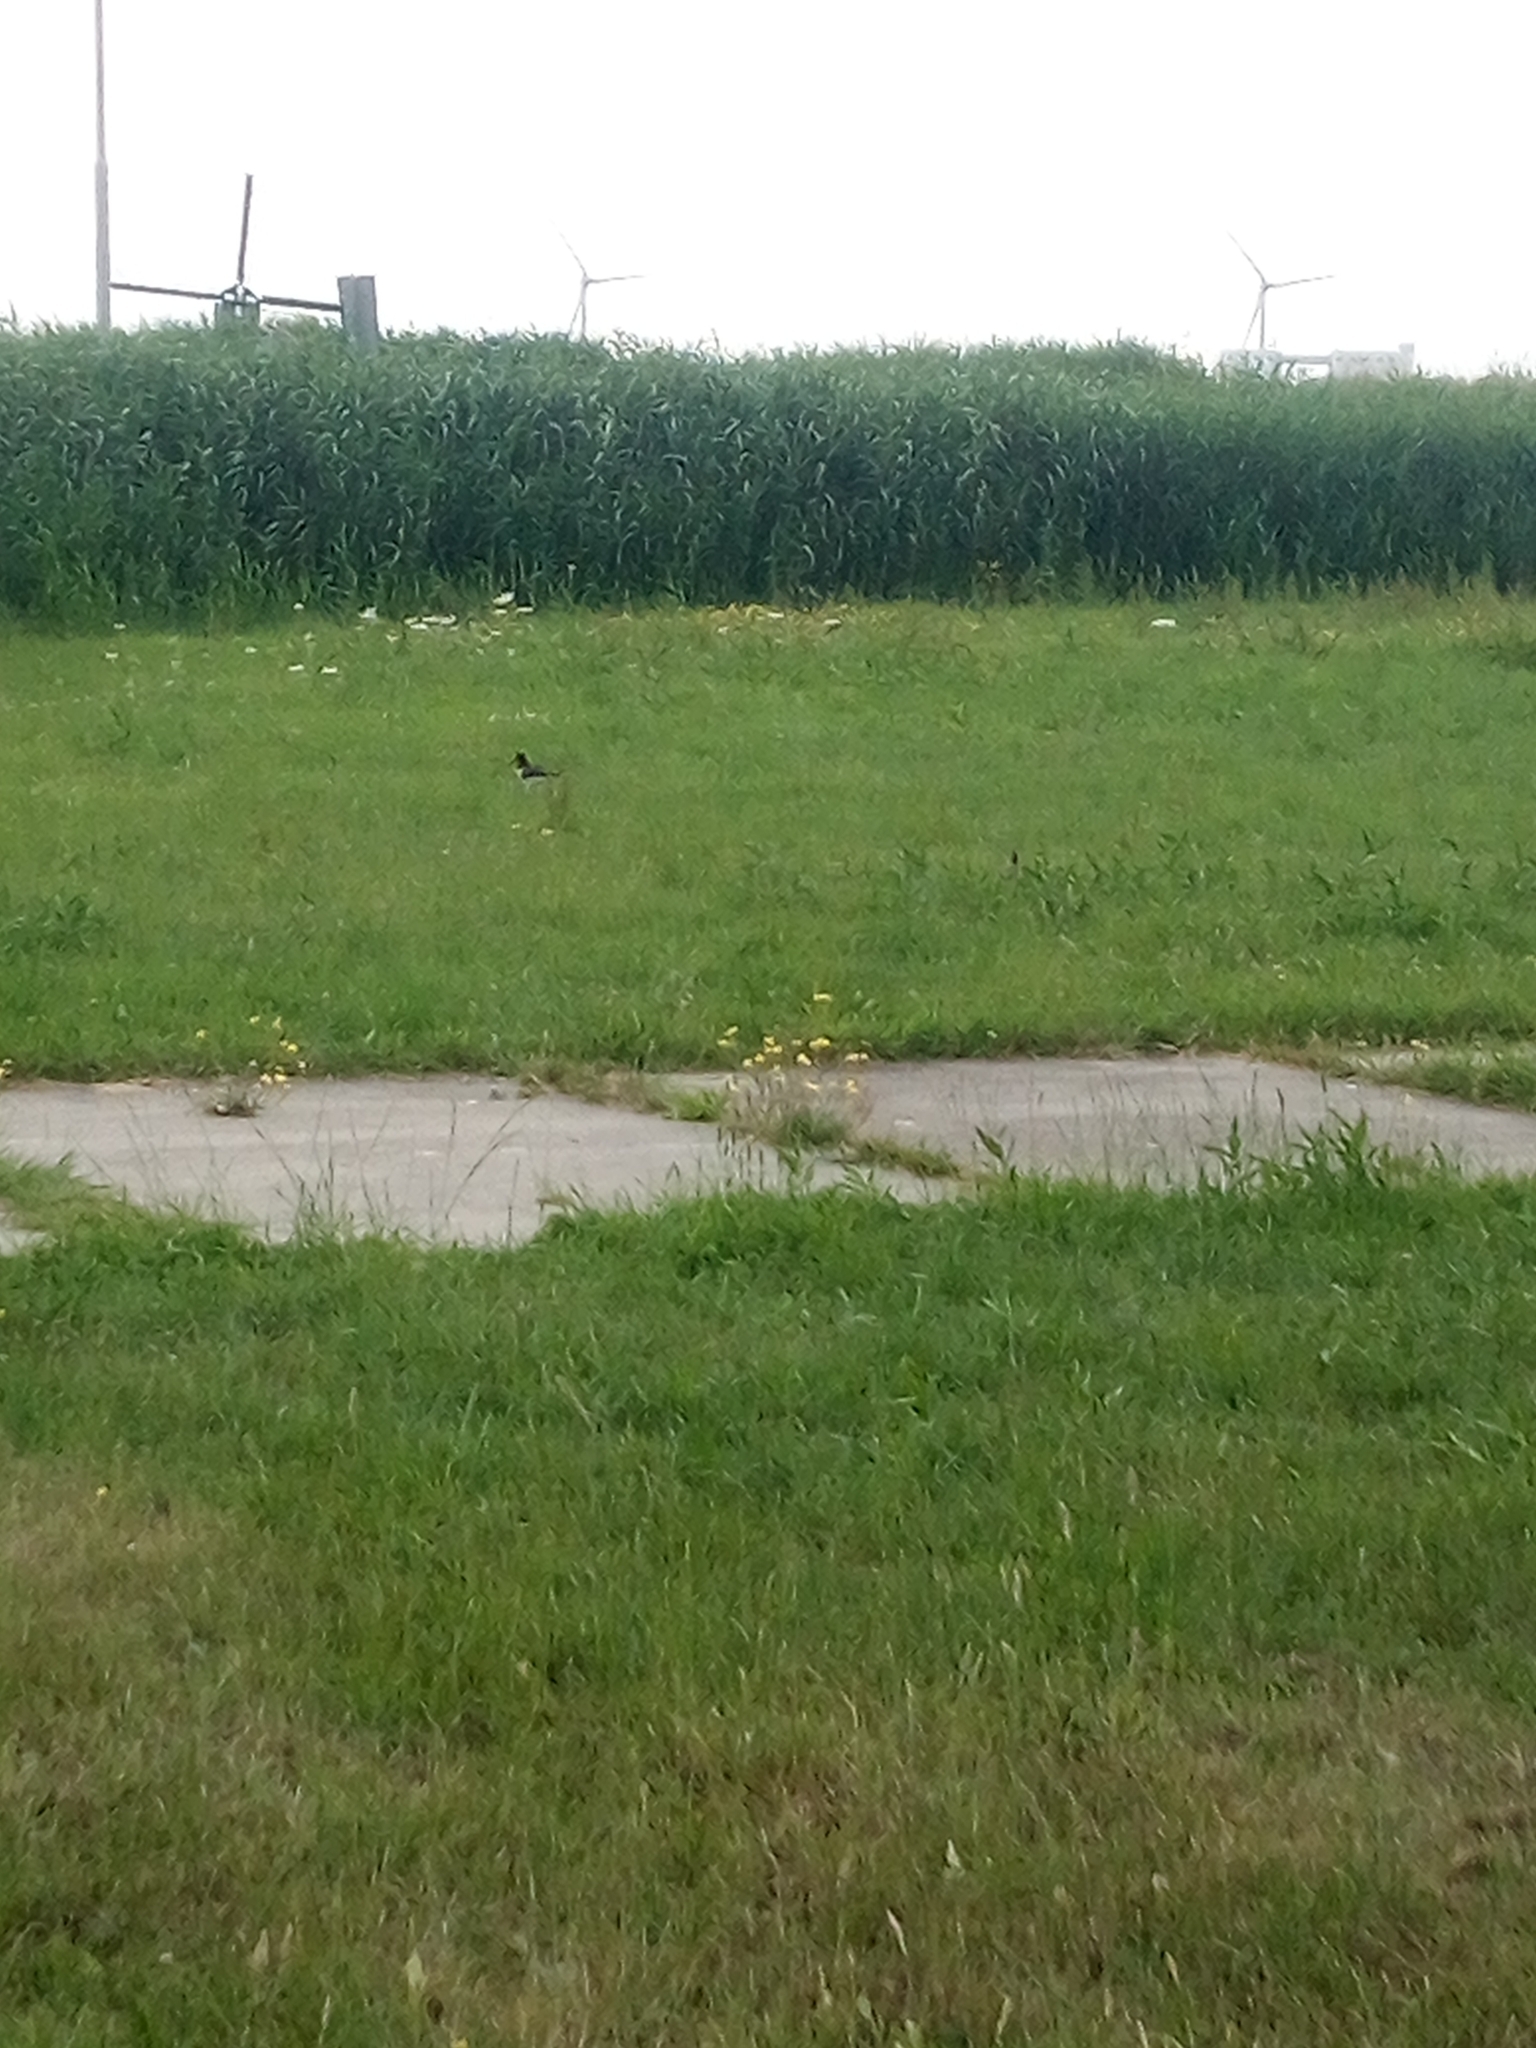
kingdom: Animalia
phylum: Chordata
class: Aves
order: Charadriiformes
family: Haematopodidae
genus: Haematopus
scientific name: Haematopus ostralegus
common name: Eurasian oystercatcher
